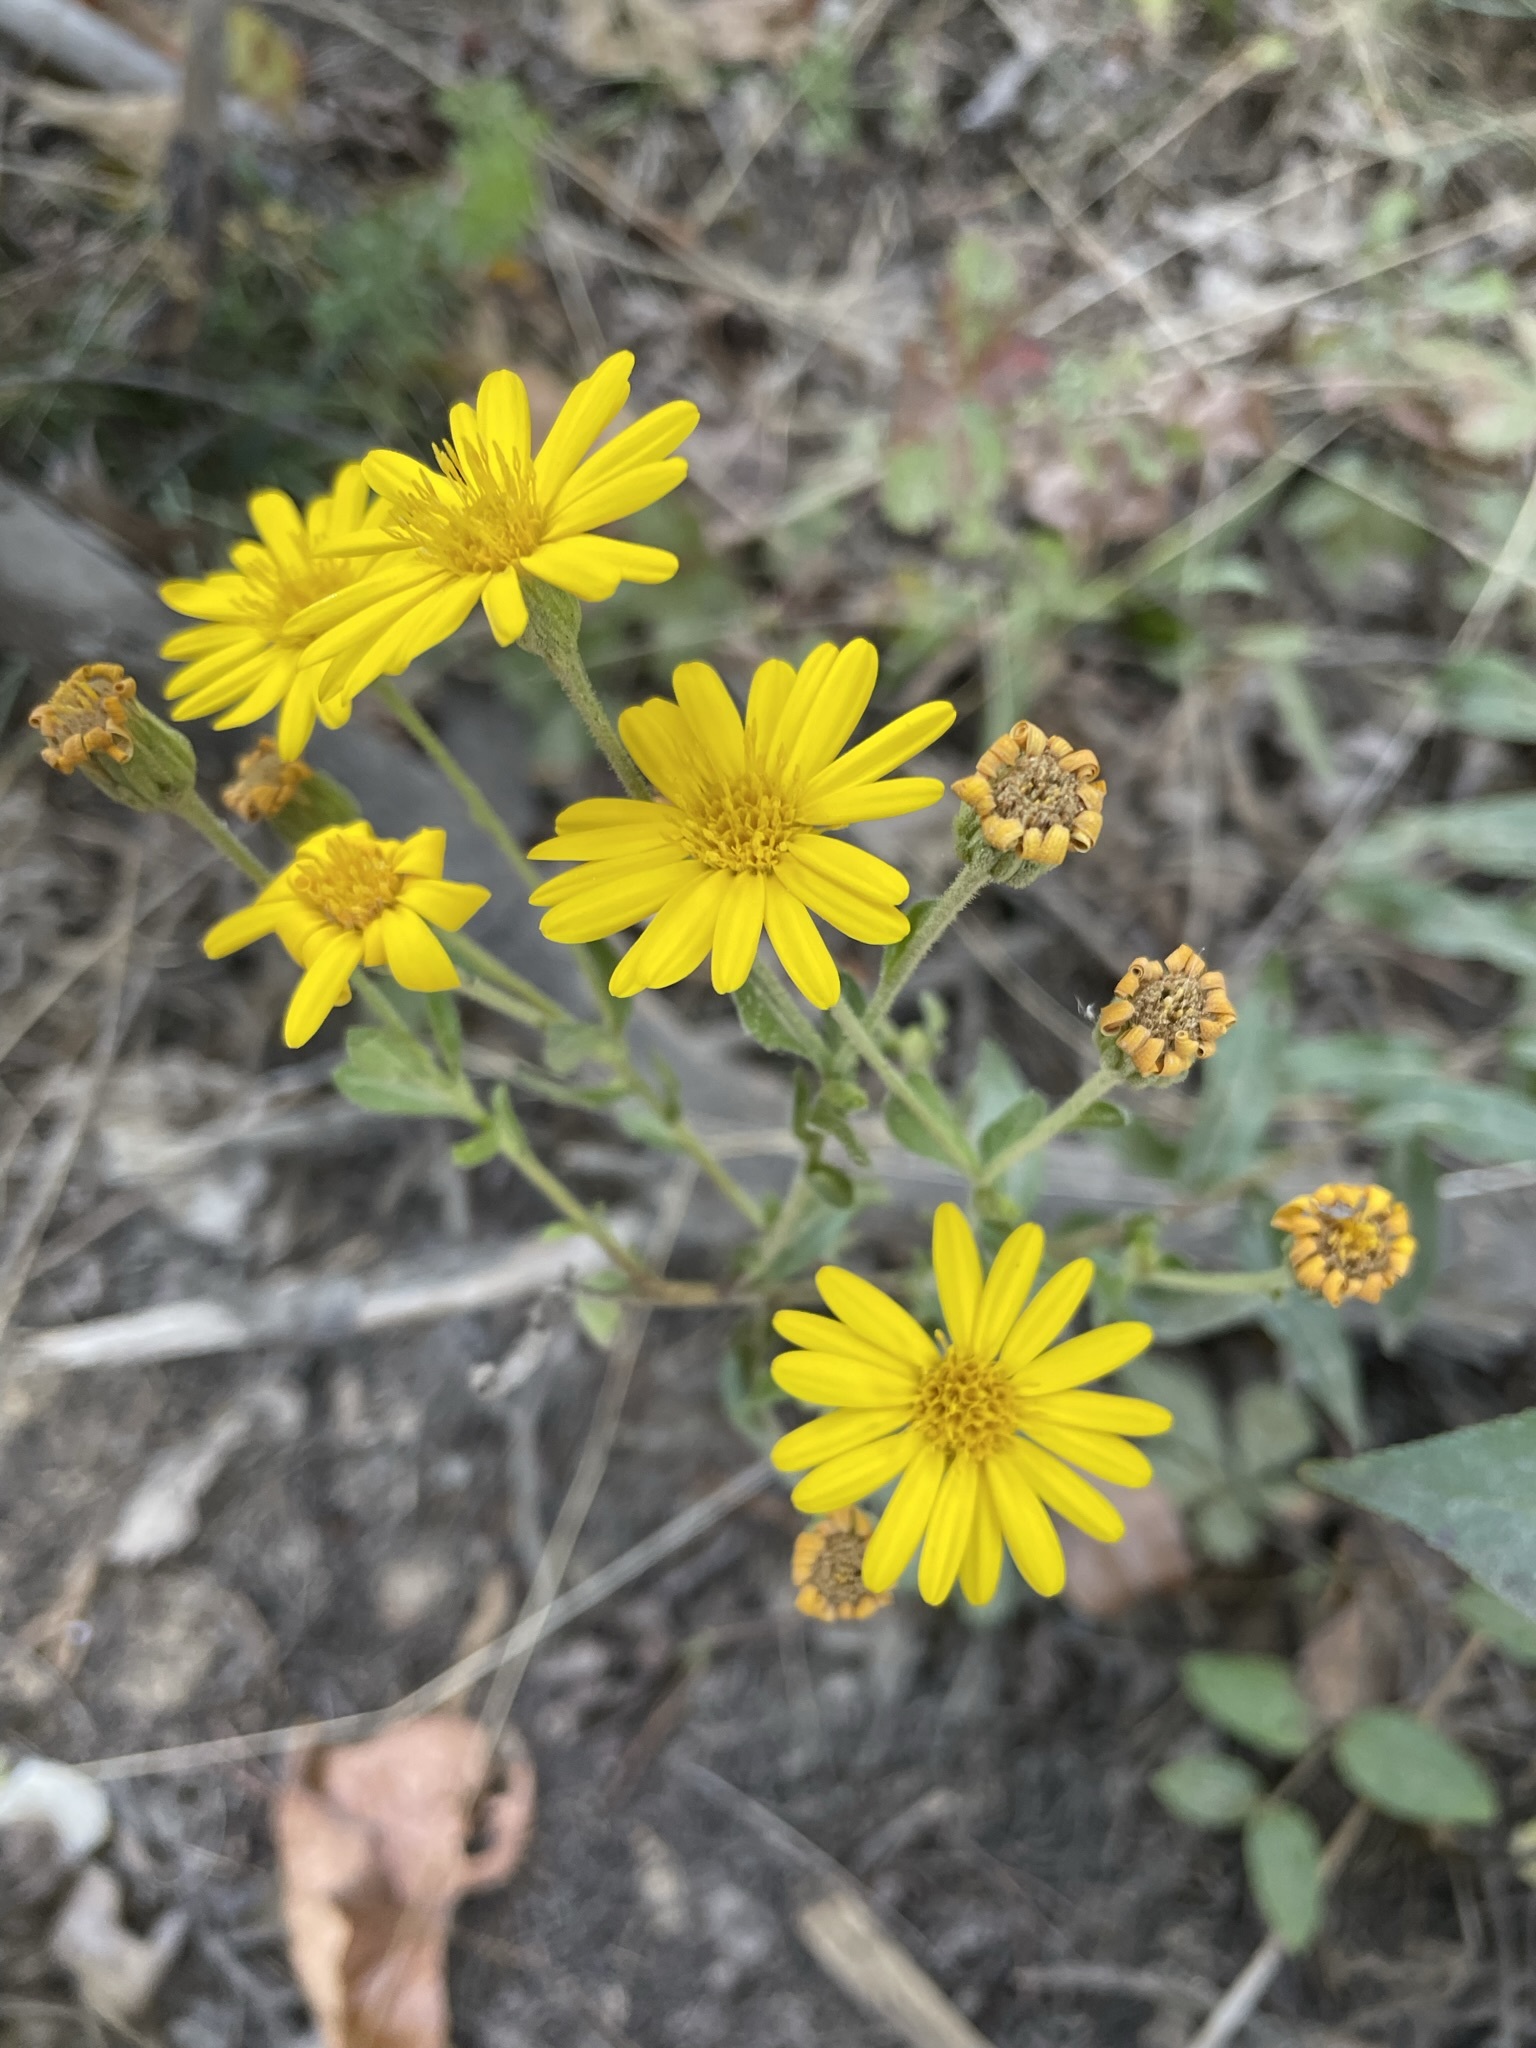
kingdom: Plantae
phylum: Tracheophyta
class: Magnoliopsida
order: Asterales
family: Asteraceae
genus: Chrysopsis
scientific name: Chrysopsis mariana
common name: Maryland golden-aster
